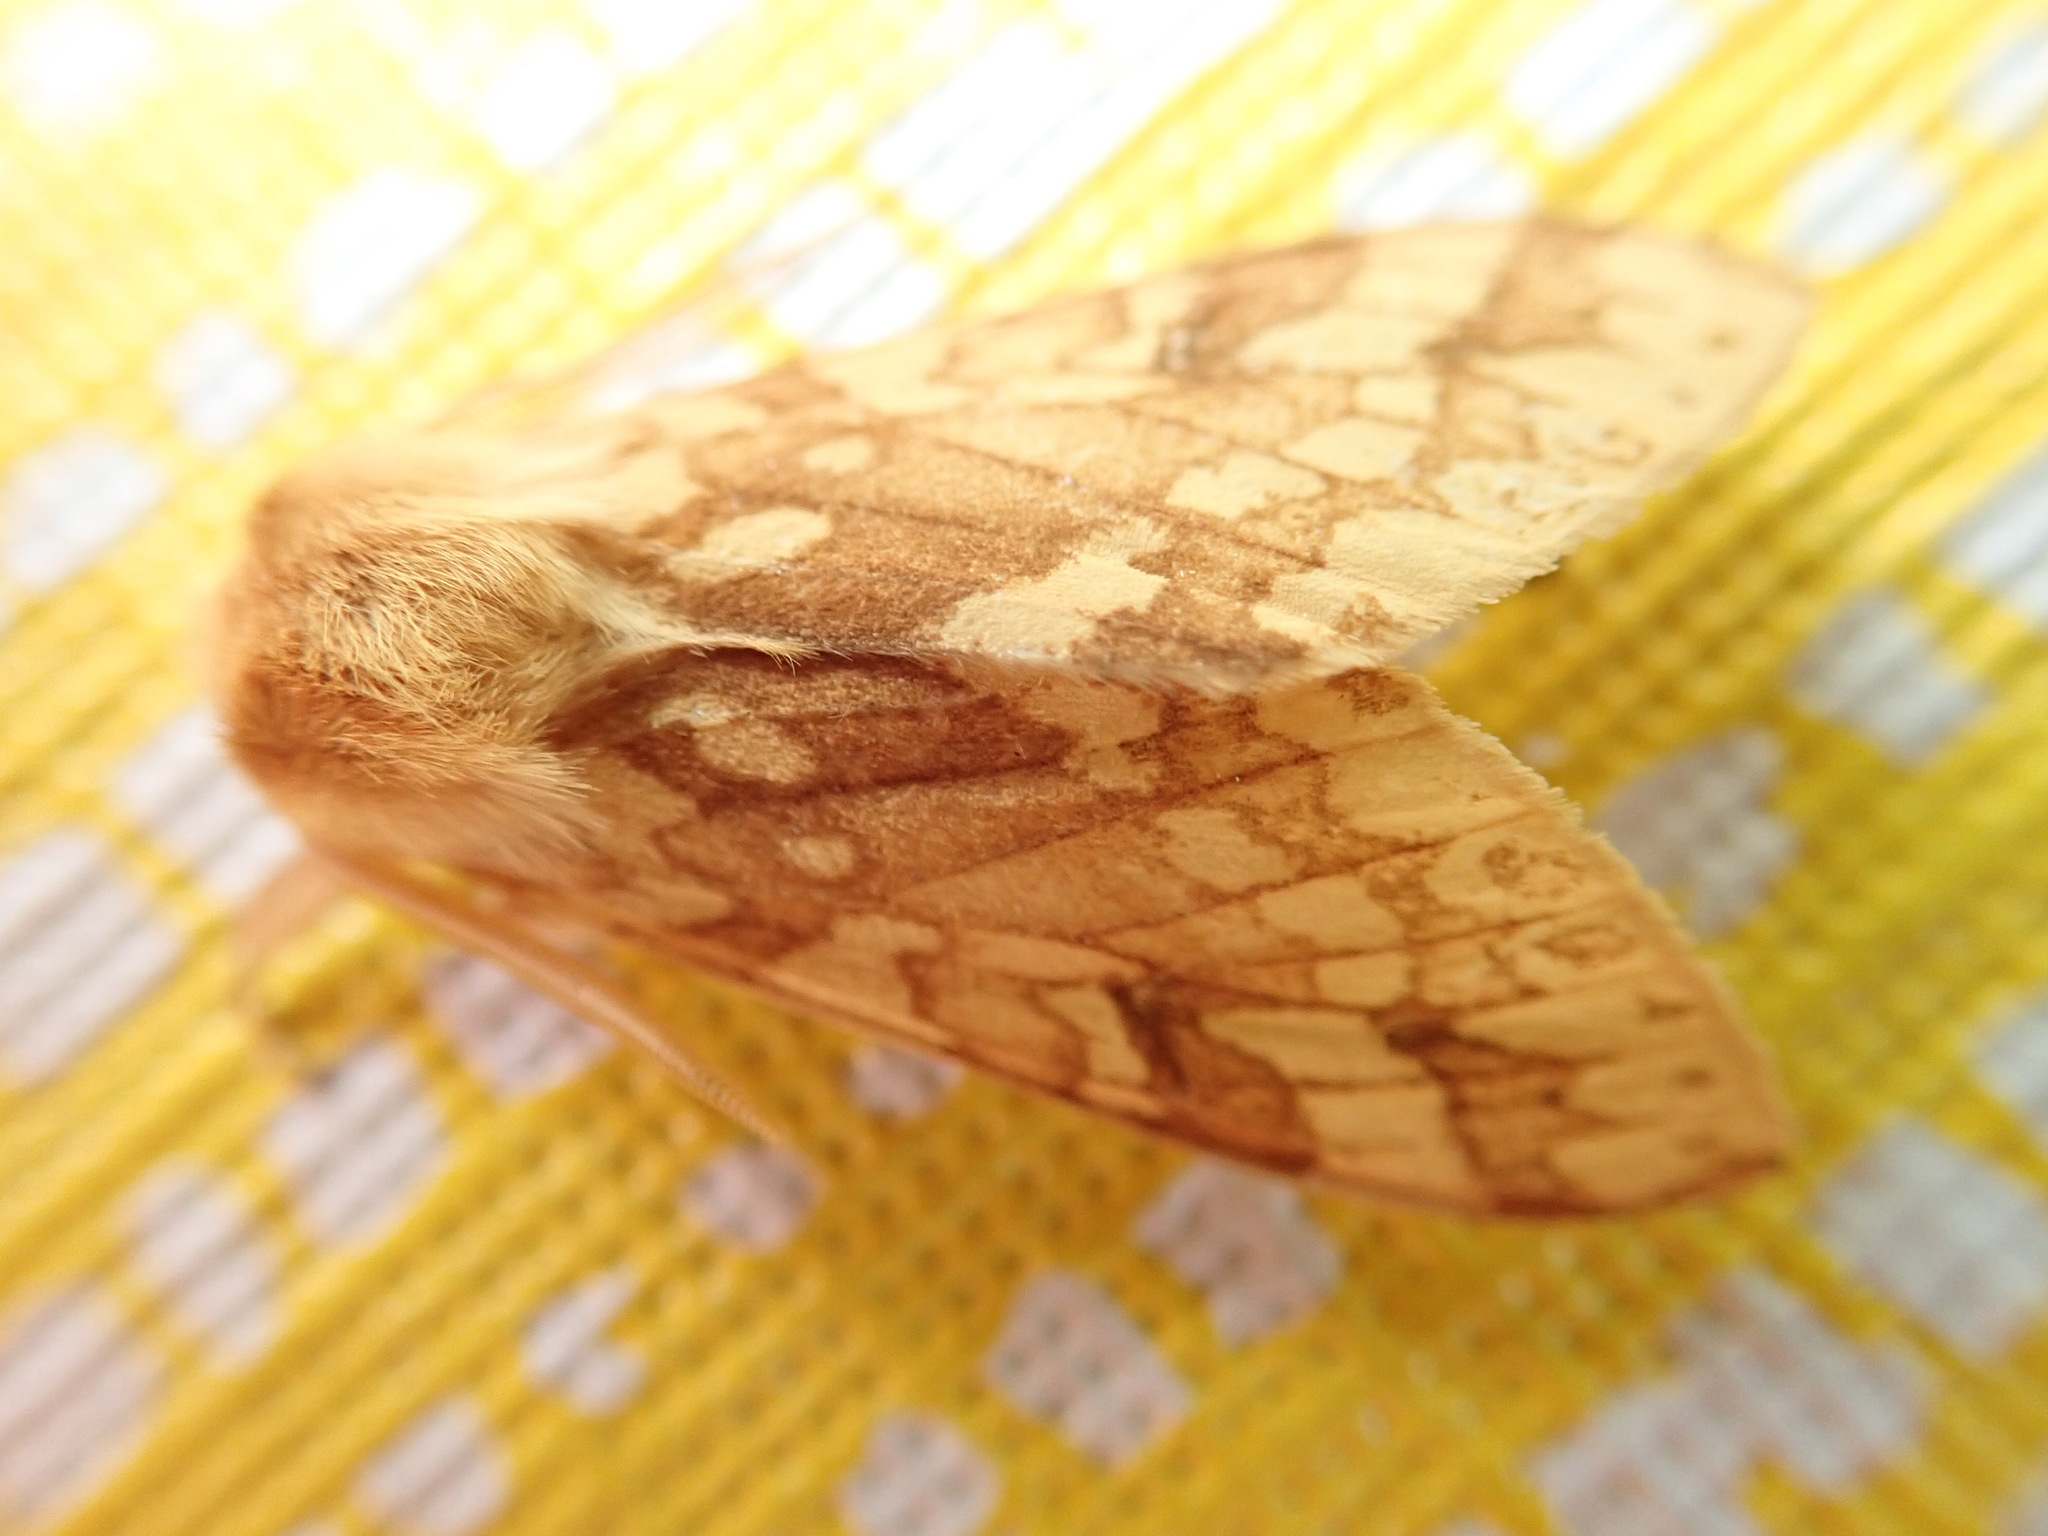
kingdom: Animalia
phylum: Arthropoda
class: Insecta
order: Lepidoptera
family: Erebidae
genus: Lophocampa
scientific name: Lophocampa maculata
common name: Spotted tussock moth
